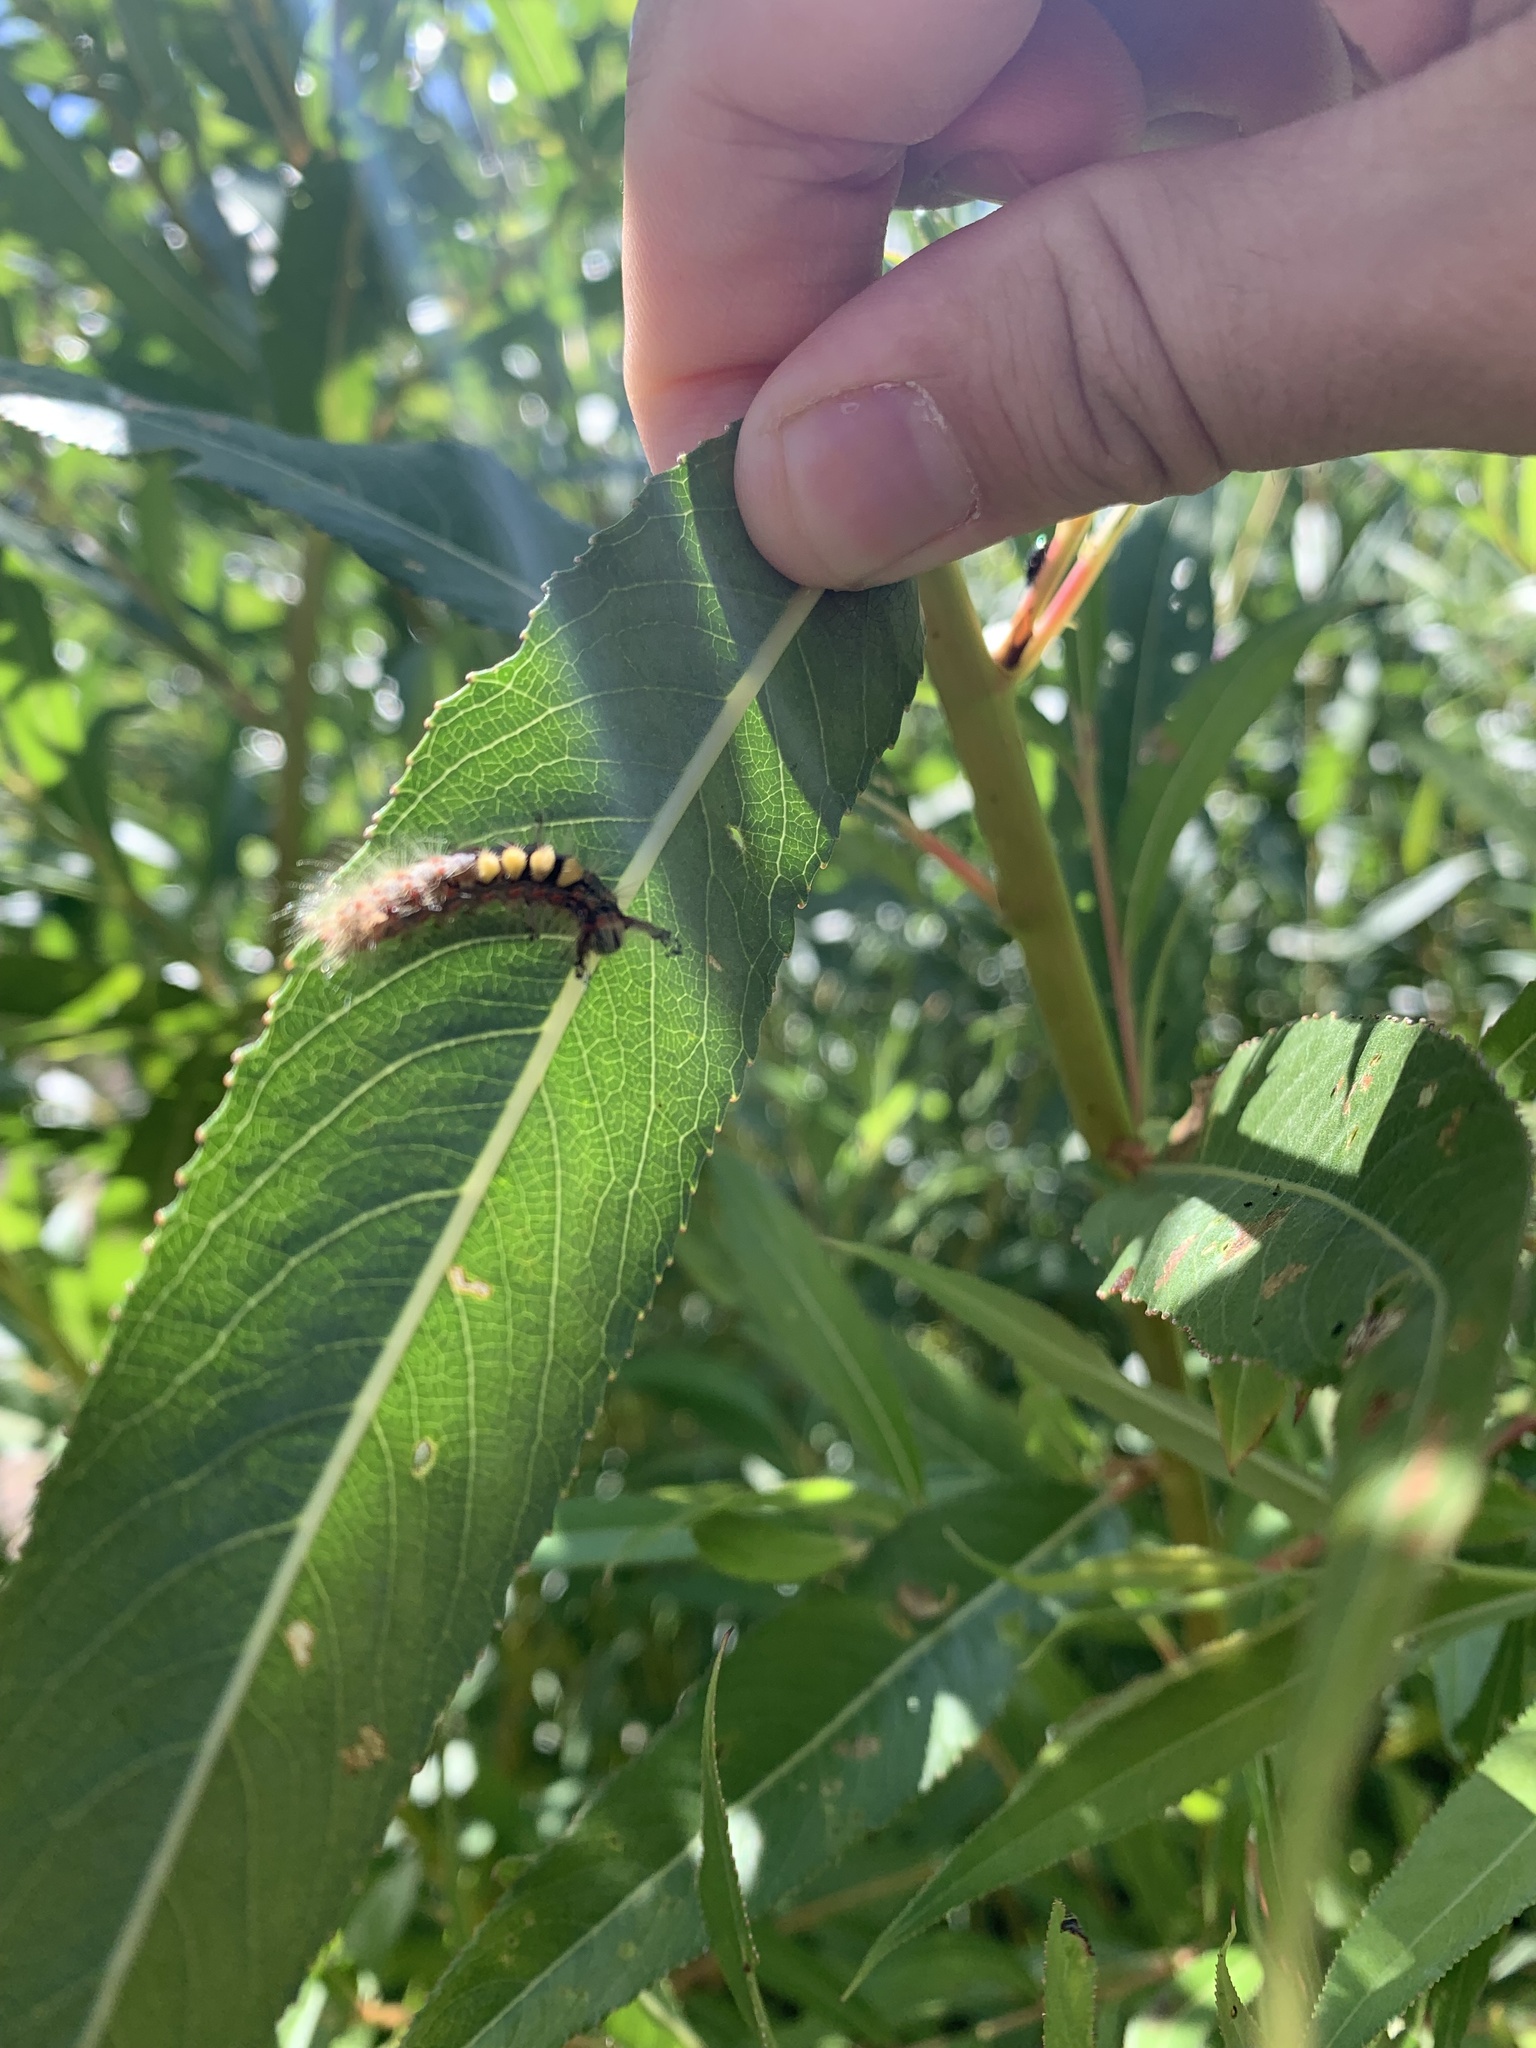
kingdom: Animalia
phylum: Arthropoda
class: Insecta
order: Lepidoptera
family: Erebidae
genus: Orgyia
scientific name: Orgyia antiqua
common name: Vapourer
